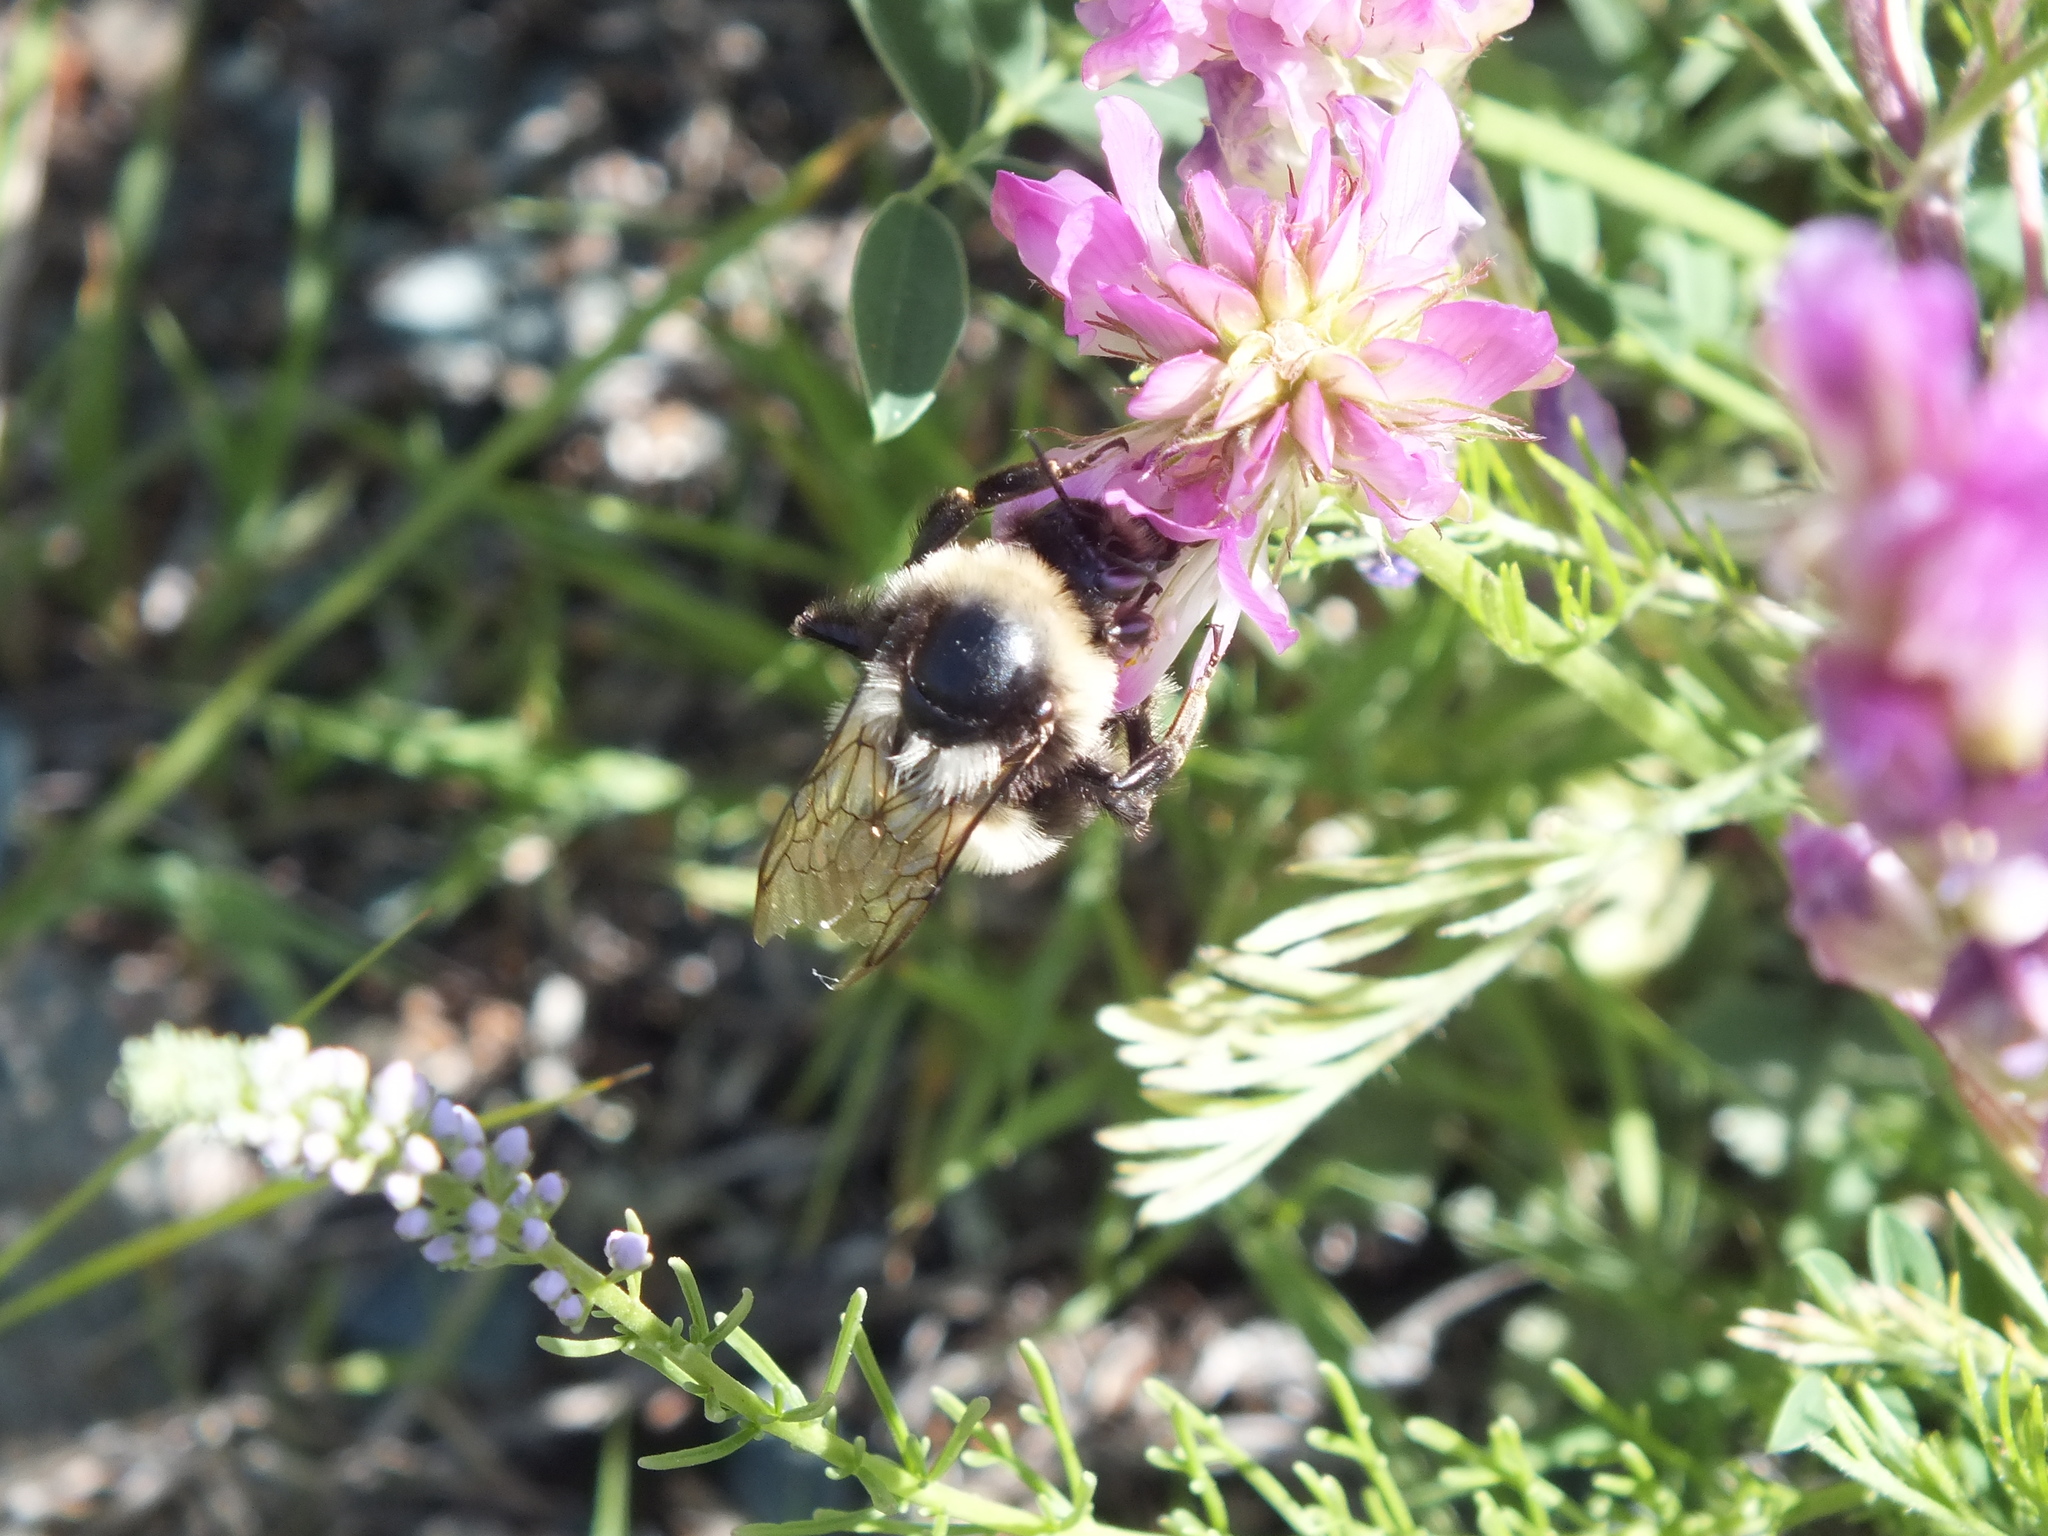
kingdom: Animalia
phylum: Arthropoda
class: Insecta
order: Hymenoptera
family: Apidae
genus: Bombus
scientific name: Bombus
